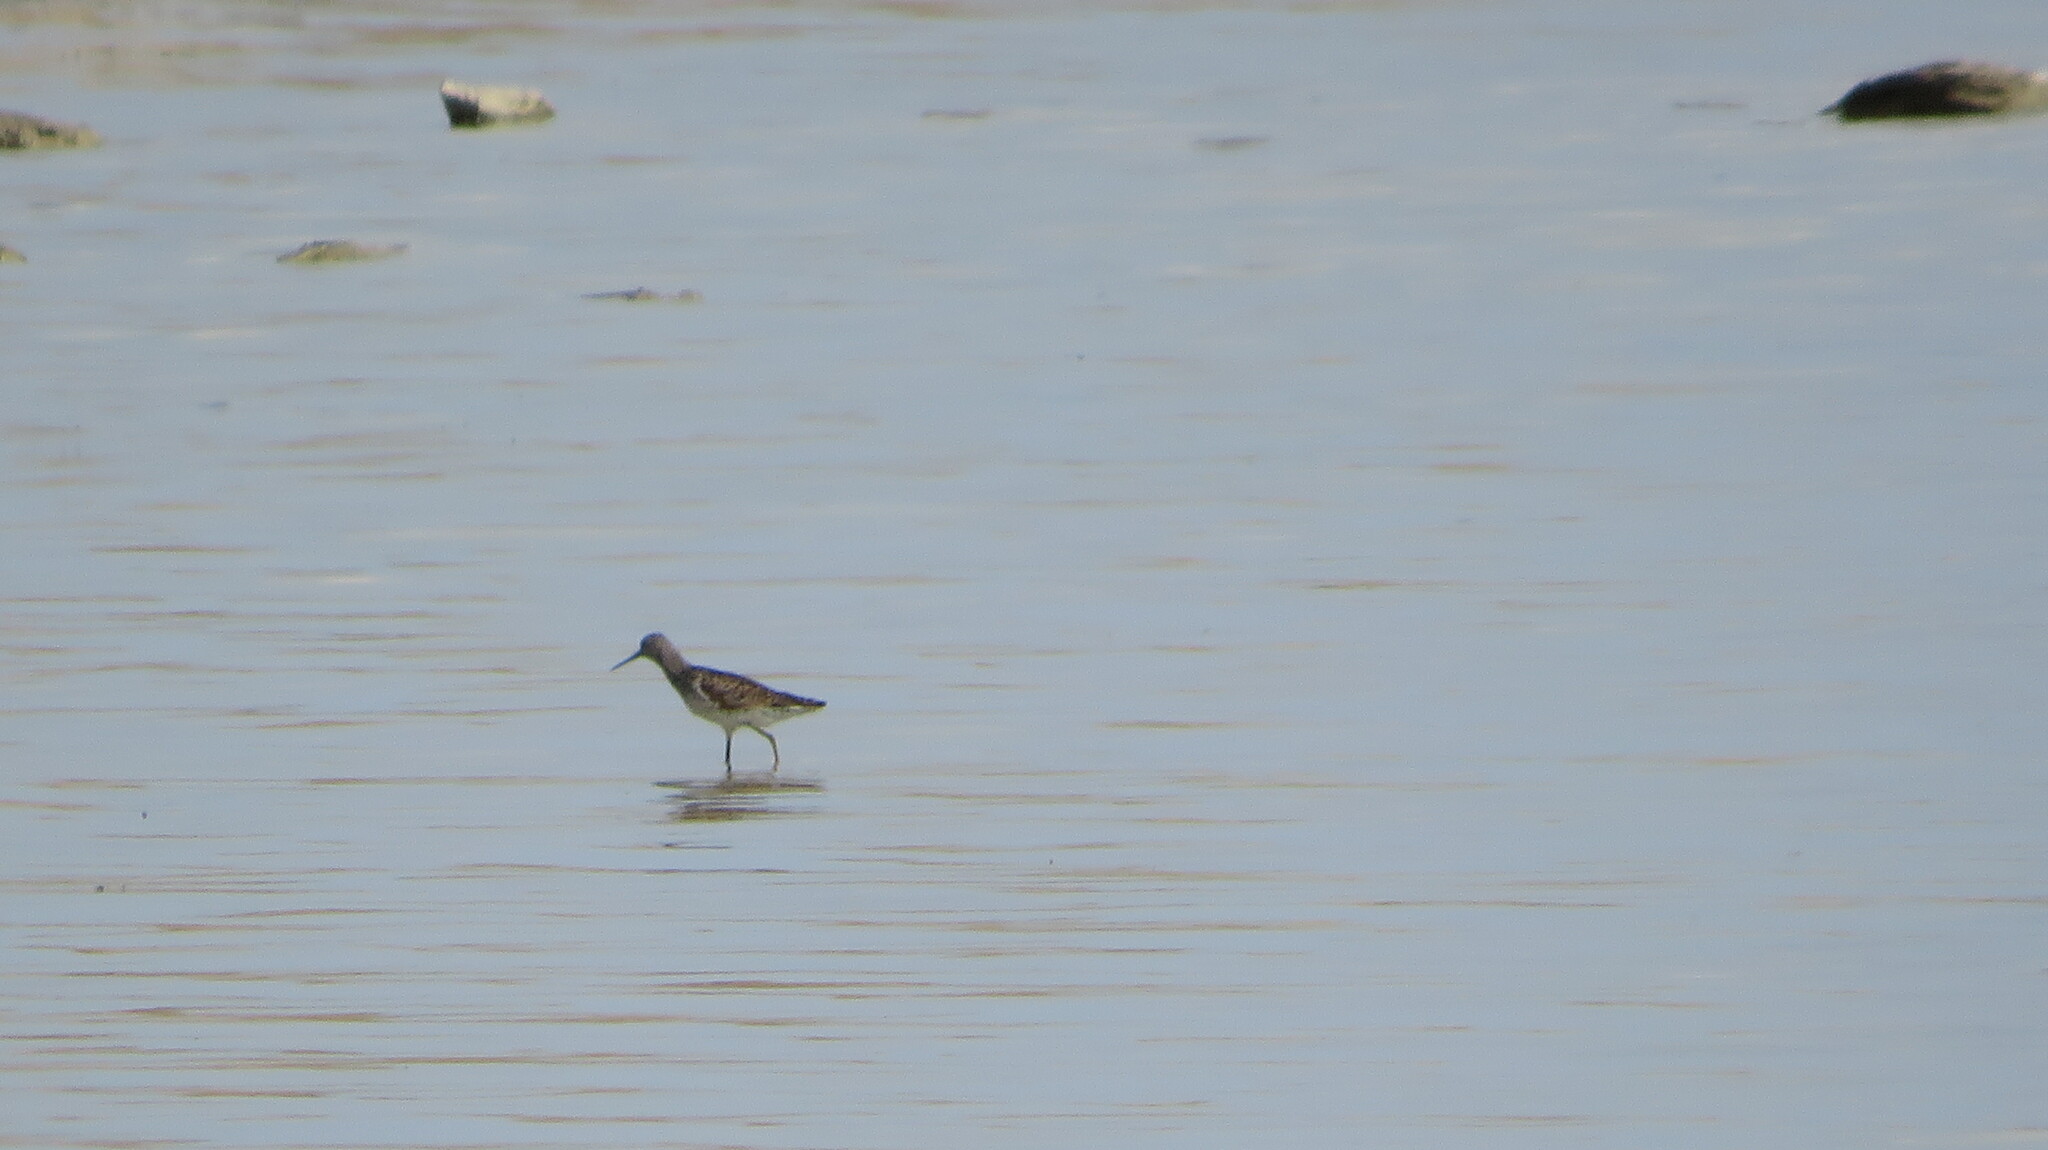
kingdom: Animalia
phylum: Chordata
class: Aves
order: Charadriiformes
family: Scolopacidae
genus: Tringa
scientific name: Tringa stagnatilis
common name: Marsh sandpiper
